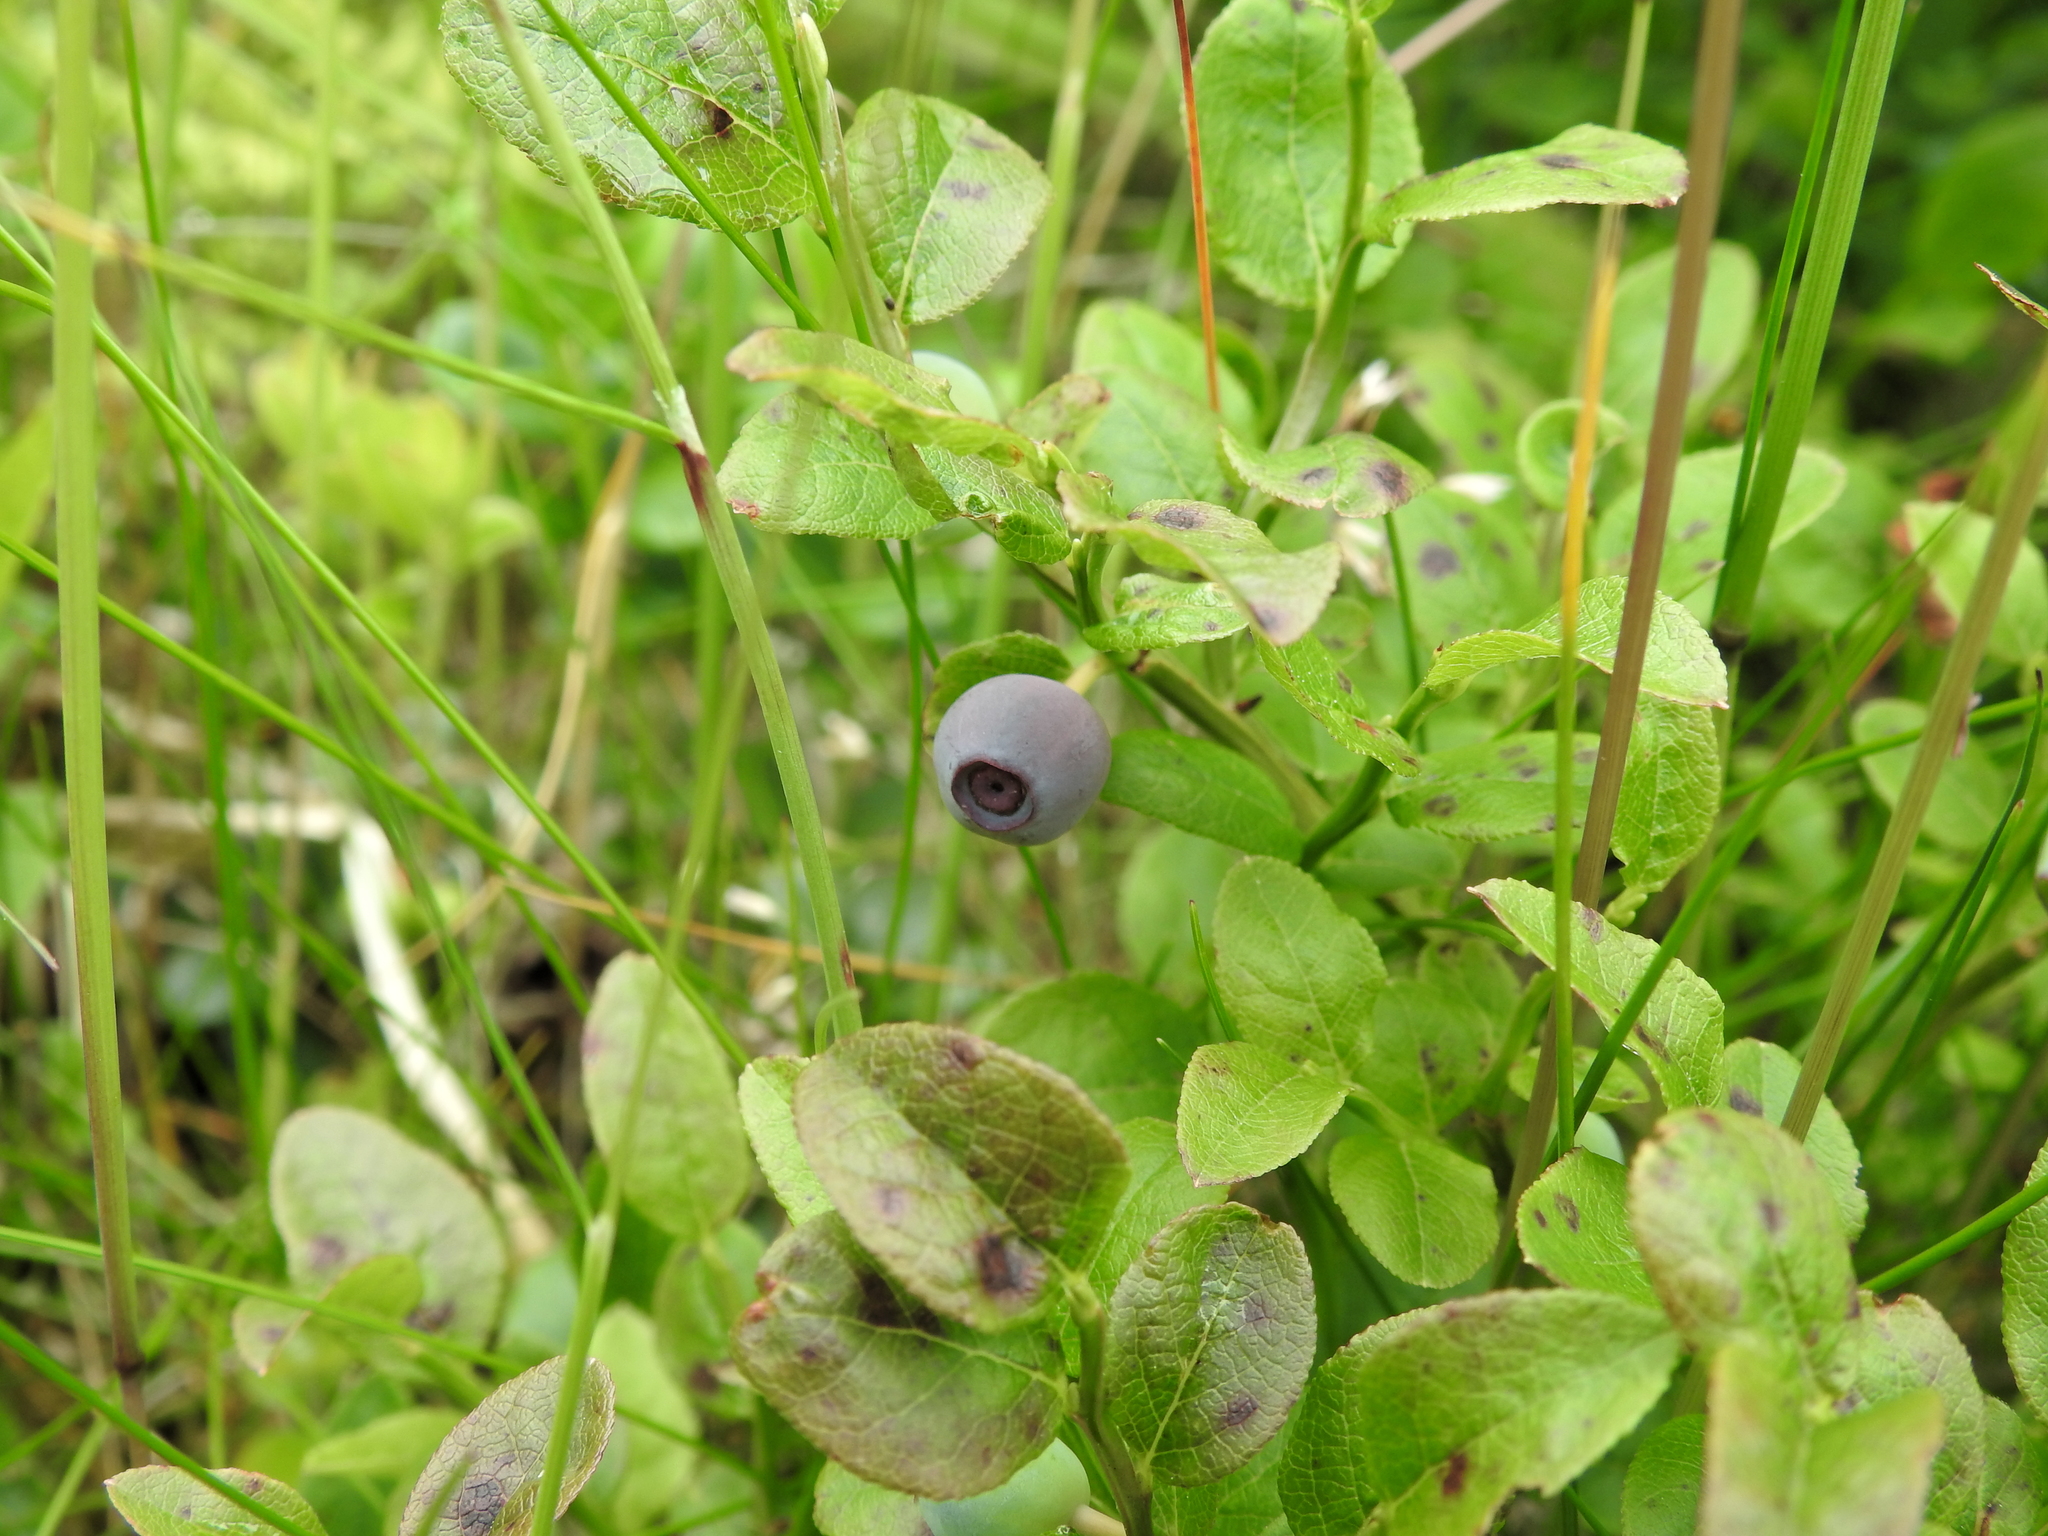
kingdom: Plantae
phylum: Tracheophyta
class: Magnoliopsida
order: Ericales
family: Ericaceae
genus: Vaccinium
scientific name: Vaccinium myrtillus
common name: Bilberry
